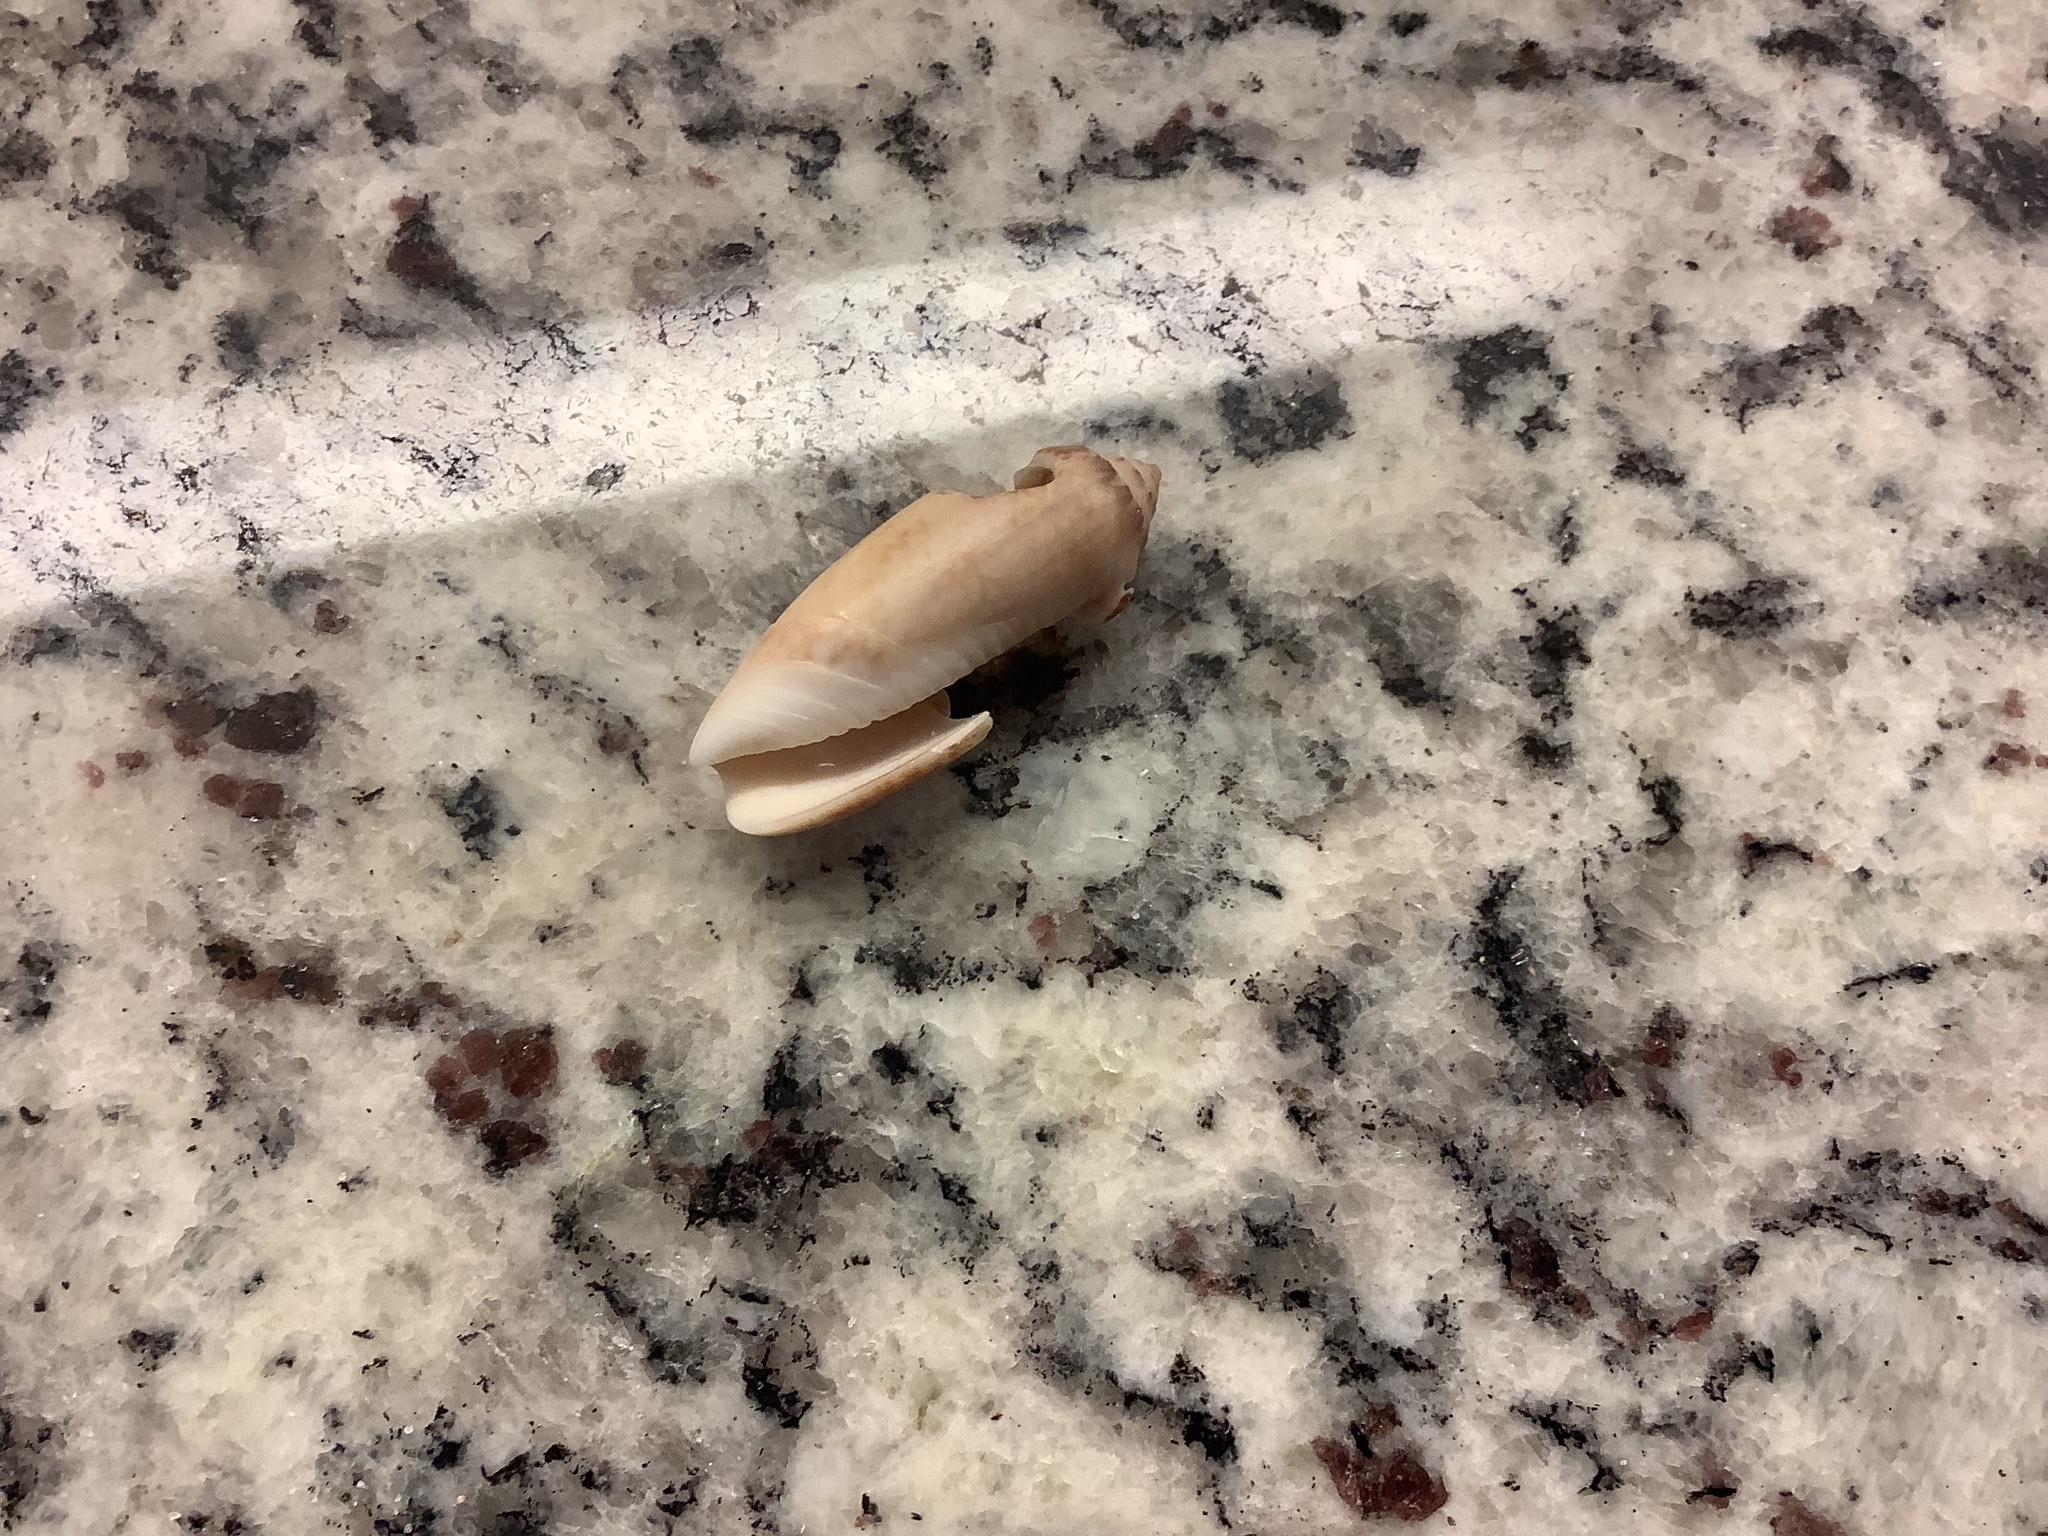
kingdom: Animalia
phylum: Mollusca
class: Gastropoda
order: Neogastropoda
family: Olividae
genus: Oliva
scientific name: Oliva sayana
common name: Lettered olive
